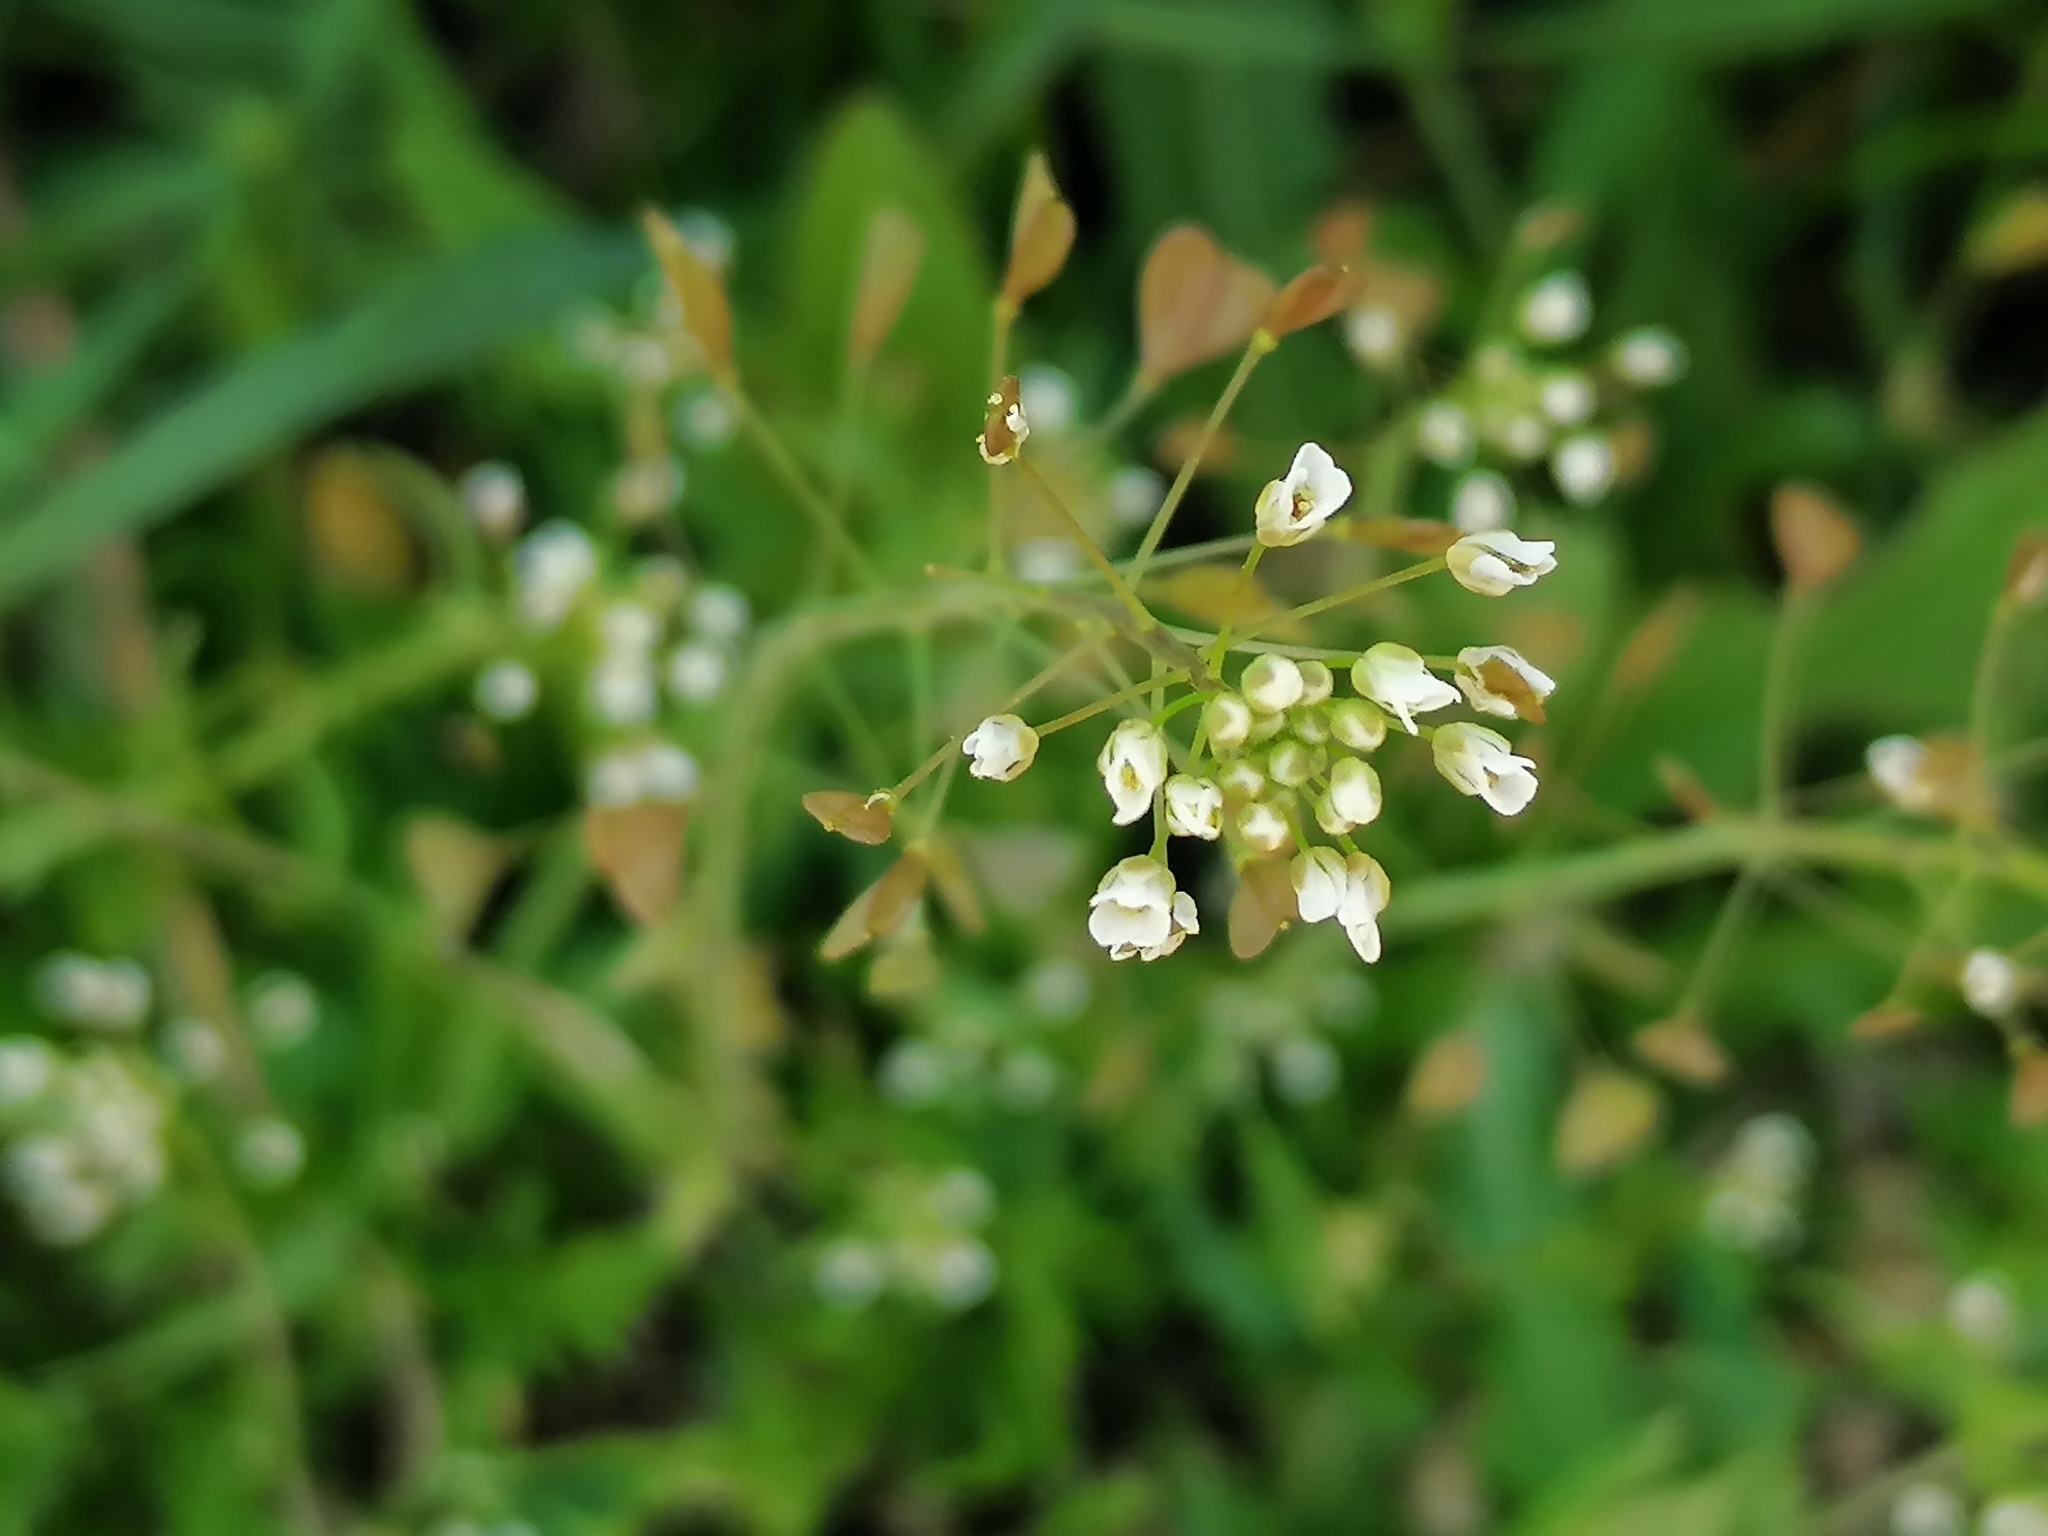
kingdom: Plantae
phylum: Tracheophyta
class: Magnoliopsida
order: Brassicales
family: Brassicaceae
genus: Capsella
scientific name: Capsella bursa-pastoris
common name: Shepherd's purse
